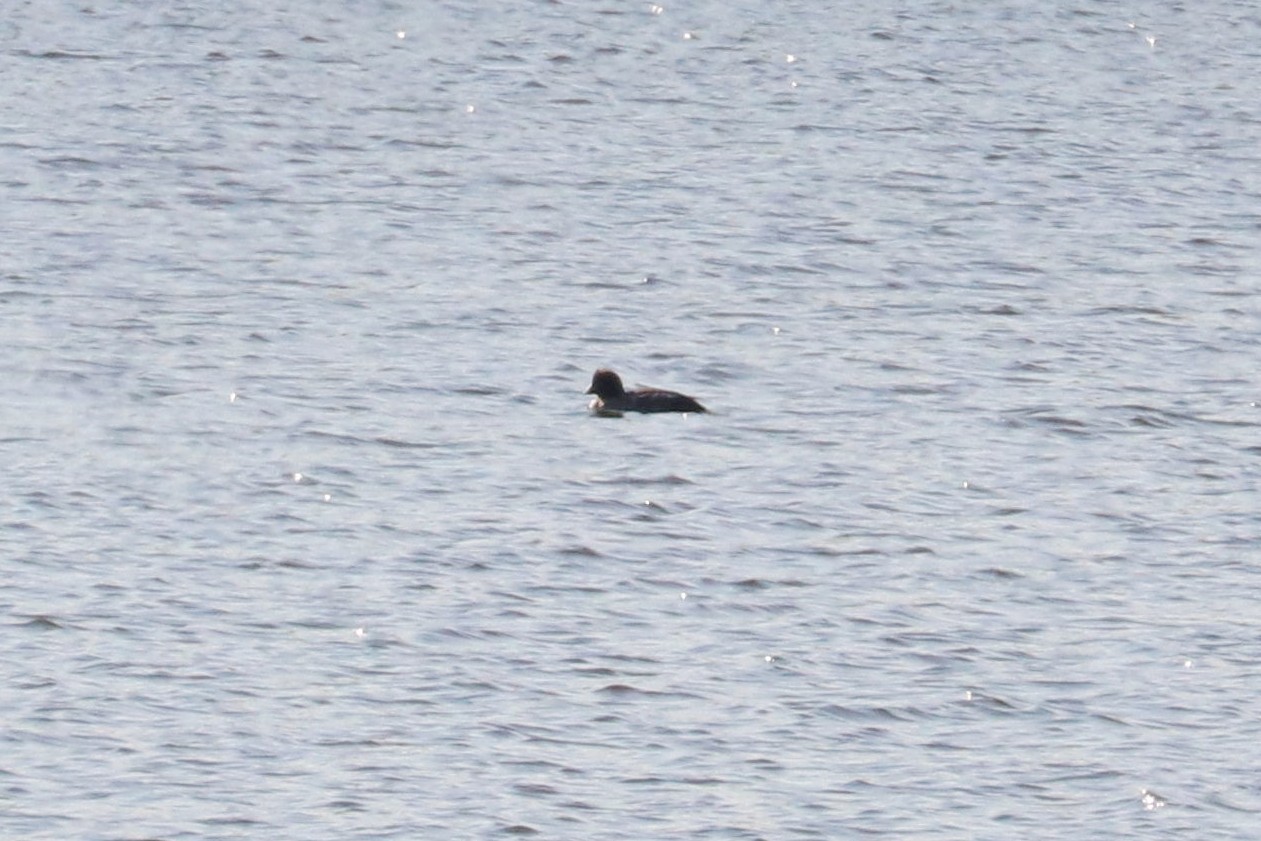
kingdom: Animalia
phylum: Chordata
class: Aves
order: Anseriformes
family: Anatidae
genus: Bucephala
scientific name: Bucephala clangula
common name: Common goldeneye
